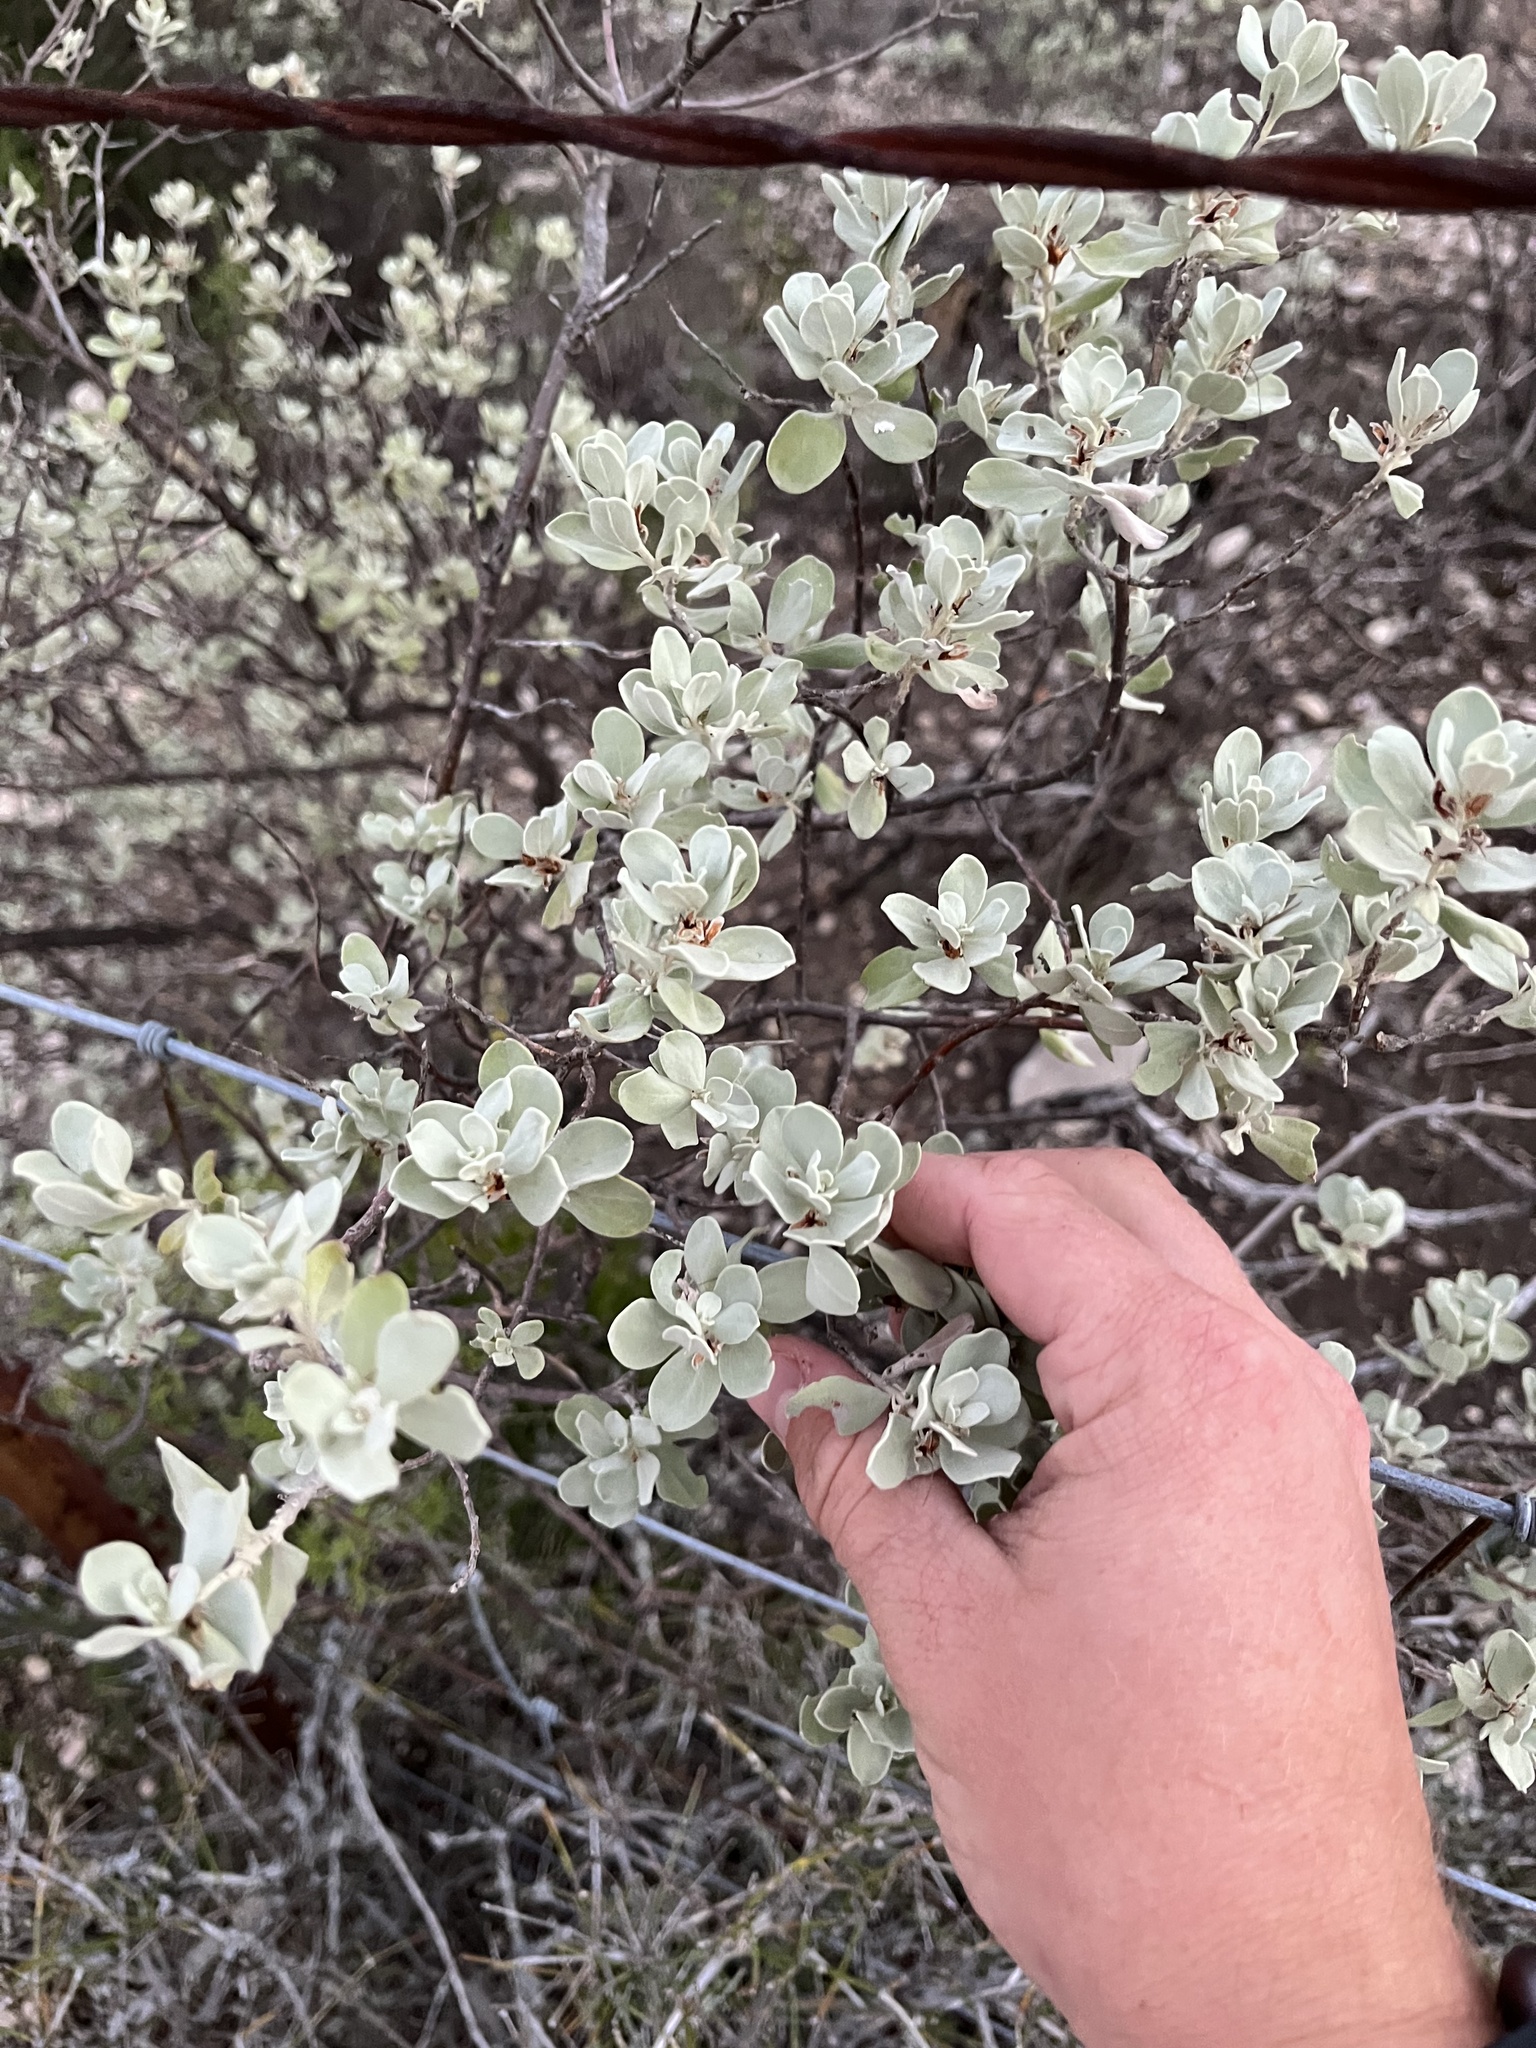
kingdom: Plantae
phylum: Tracheophyta
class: Magnoliopsida
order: Lamiales
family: Scrophulariaceae
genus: Leucophyllum
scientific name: Leucophyllum frutescens
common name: Texas silverleaf
